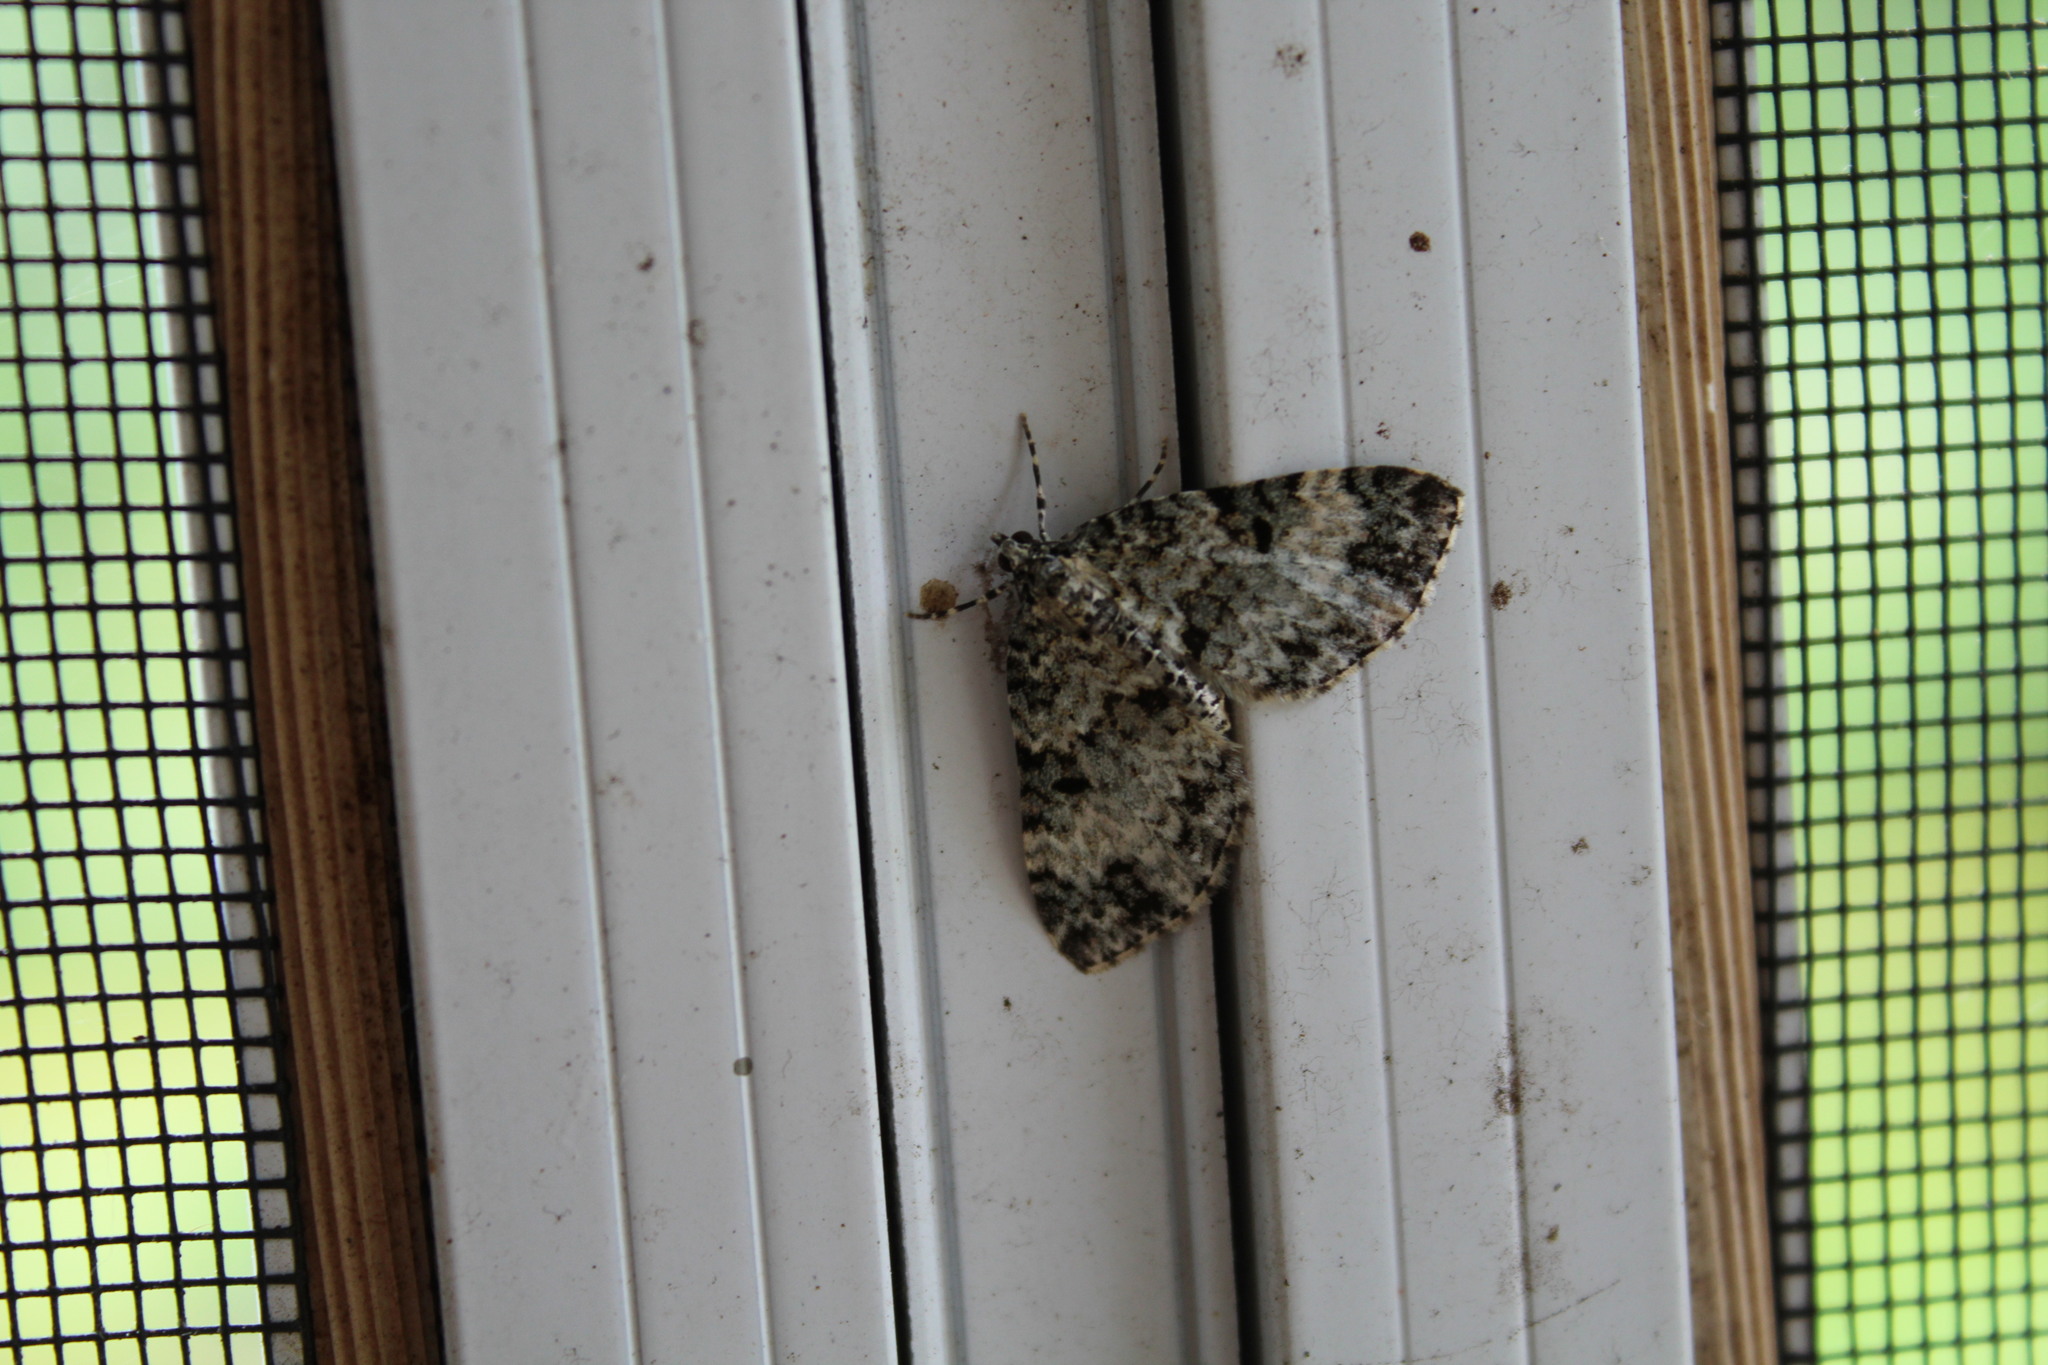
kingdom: Animalia
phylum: Arthropoda
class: Insecta
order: Lepidoptera
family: Geometridae
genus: Spargania
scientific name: Spargania magnoliata
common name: Double-banded carpet
